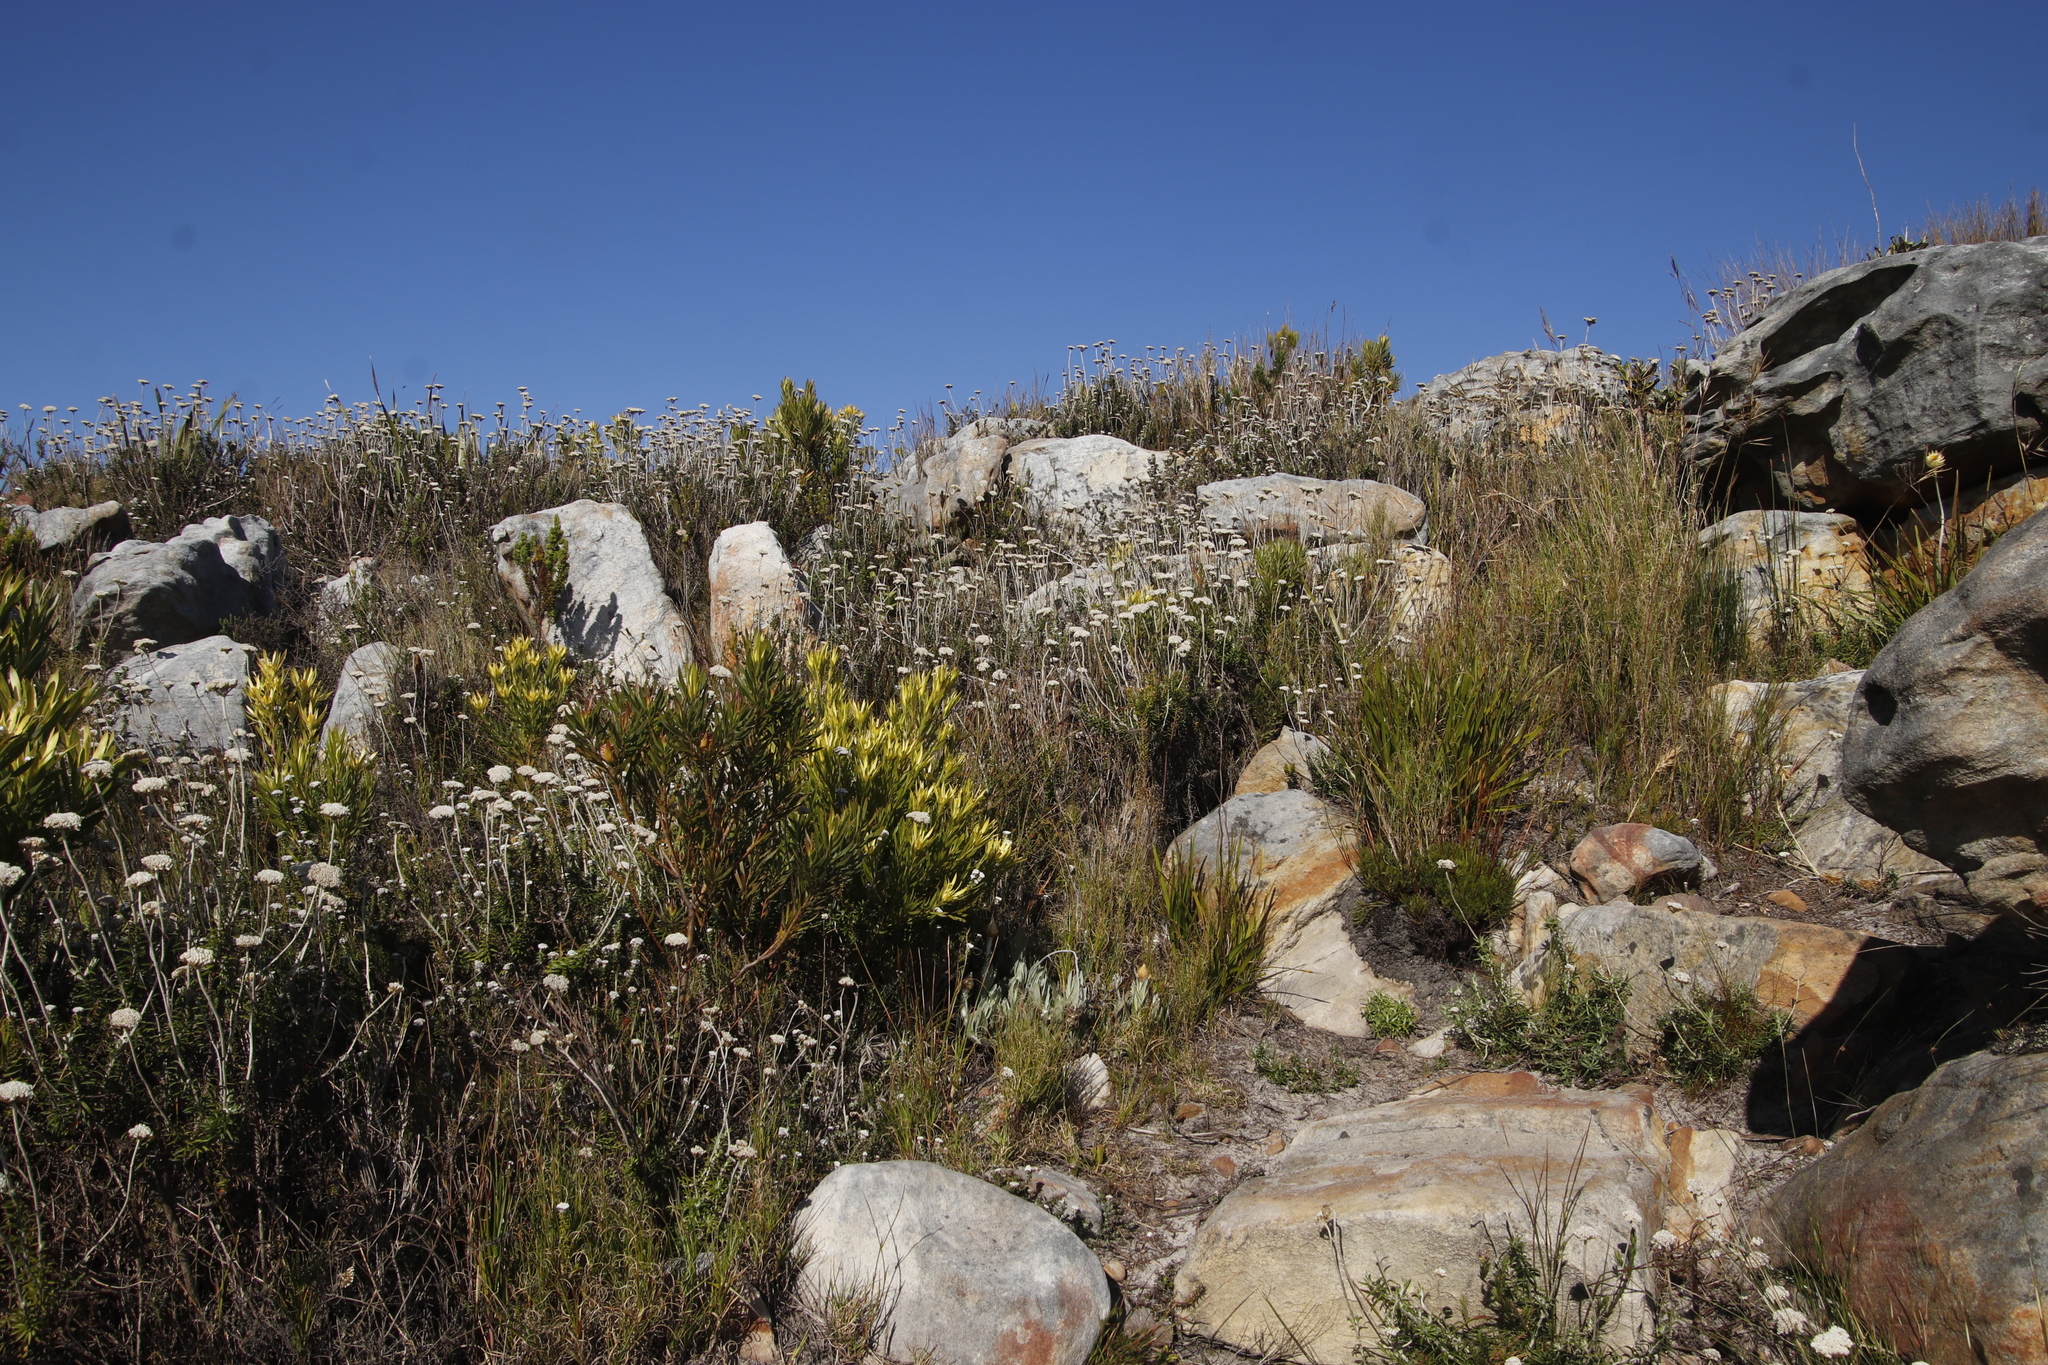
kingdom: Plantae
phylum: Tracheophyta
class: Magnoliopsida
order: Asterales
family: Asteraceae
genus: Anaxeton
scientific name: Anaxeton arborescens
